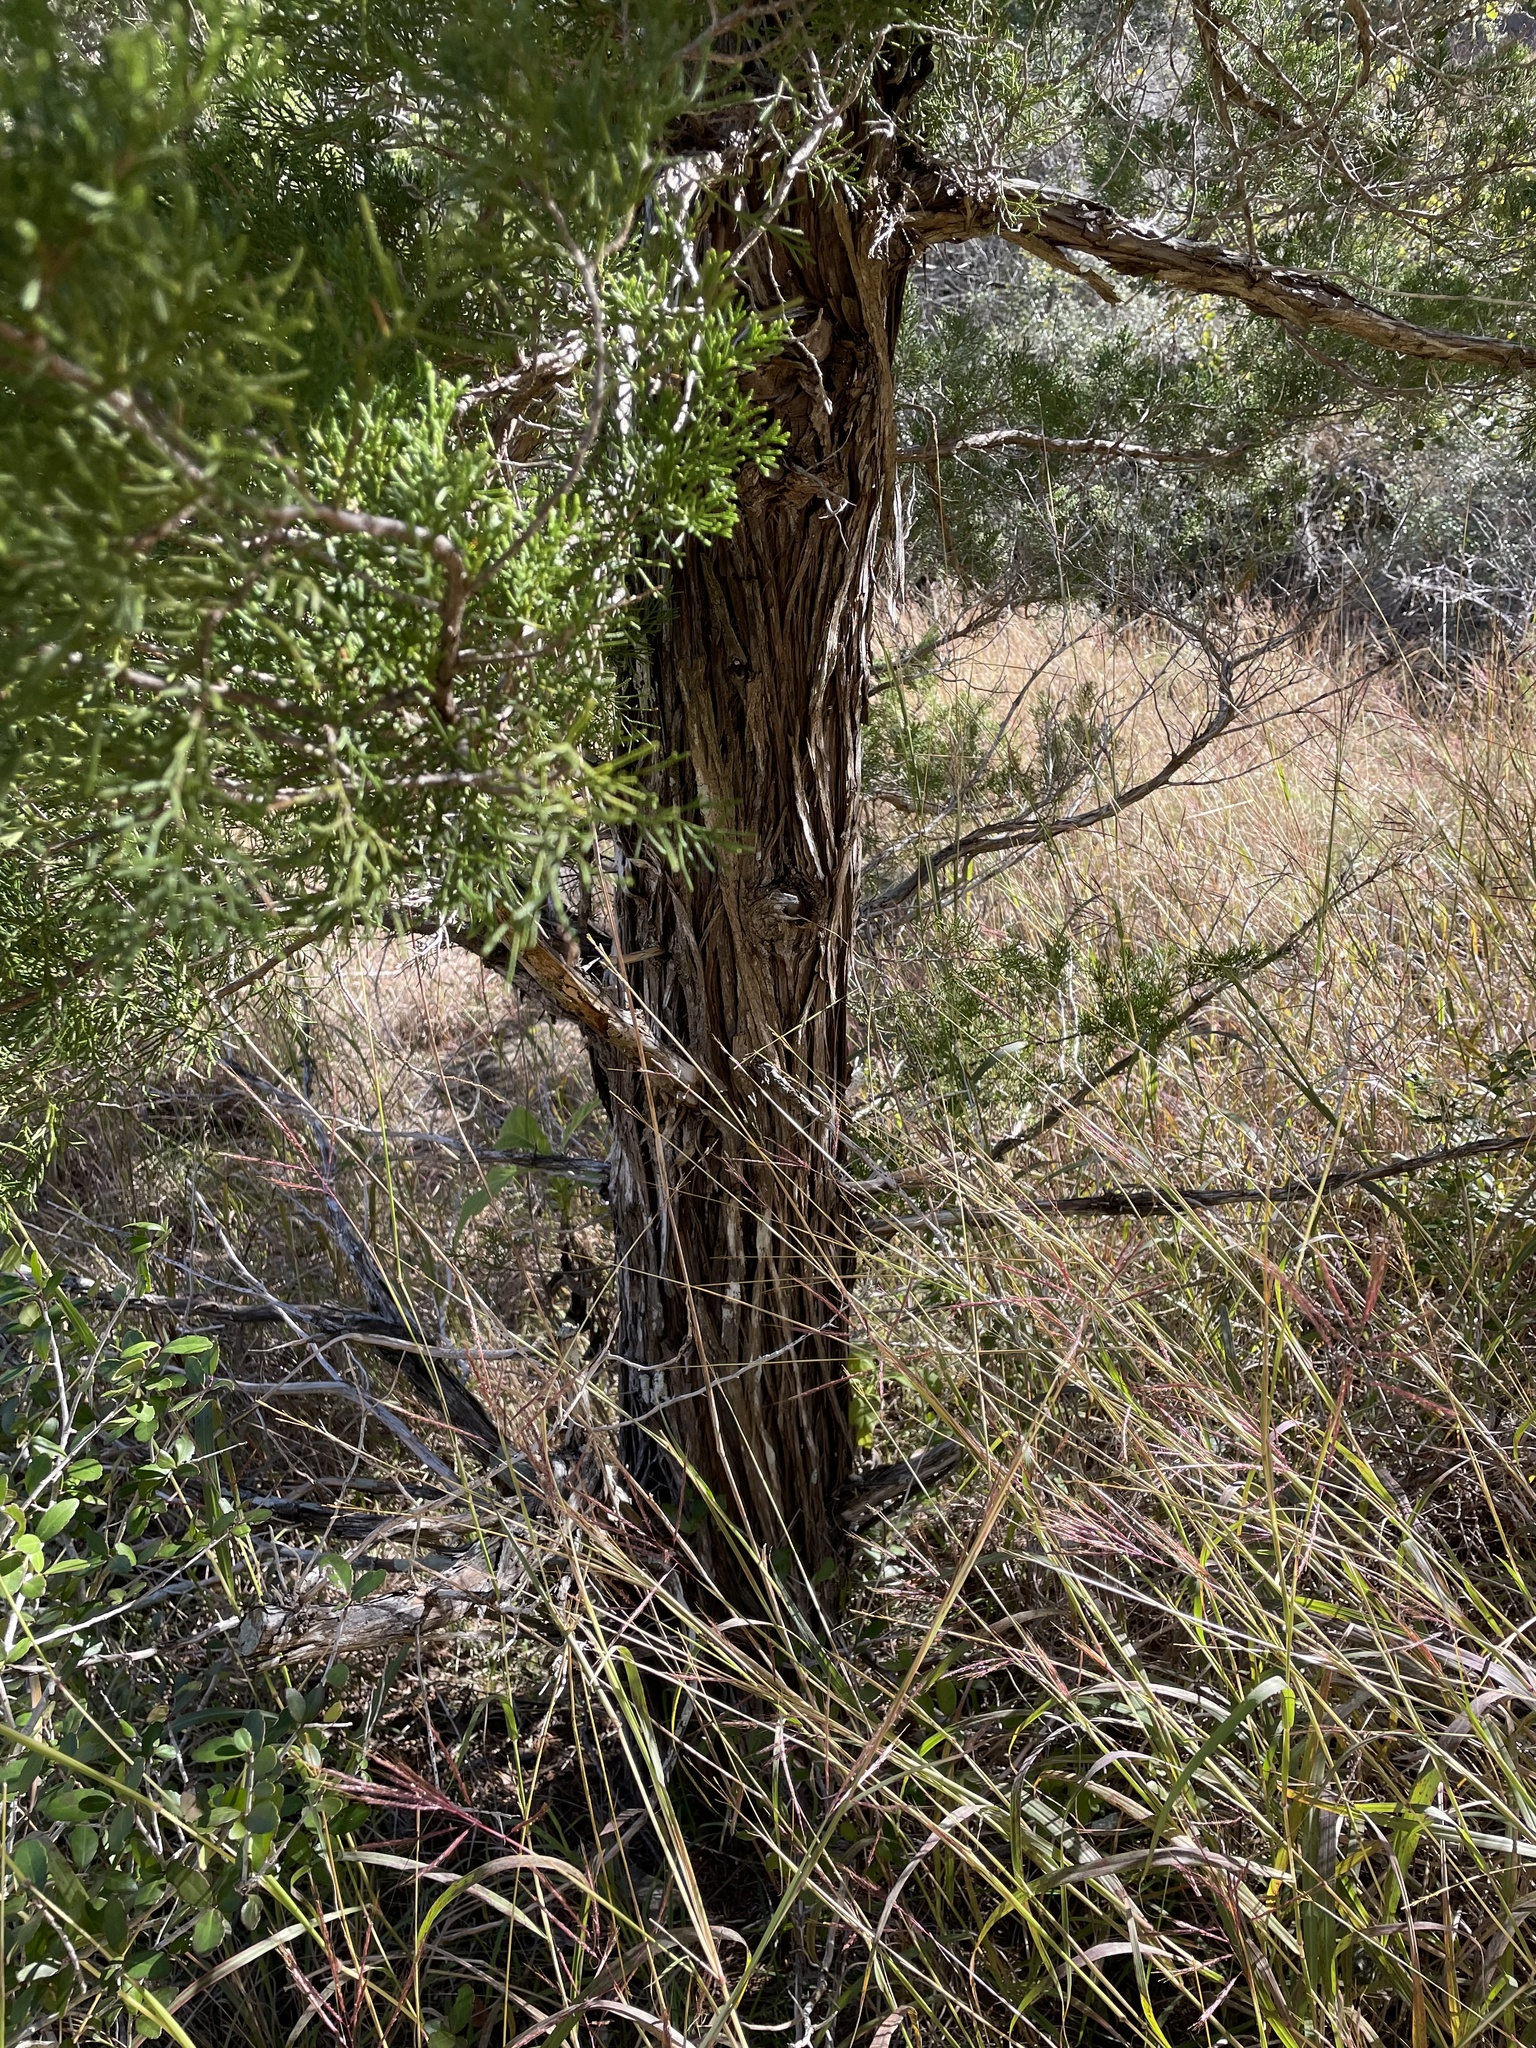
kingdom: Plantae
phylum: Tracheophyta
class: Pinopsida
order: Pinales
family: Cupressaceae
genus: Juniperus
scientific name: Juniperus virginiana
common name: Red juniper
